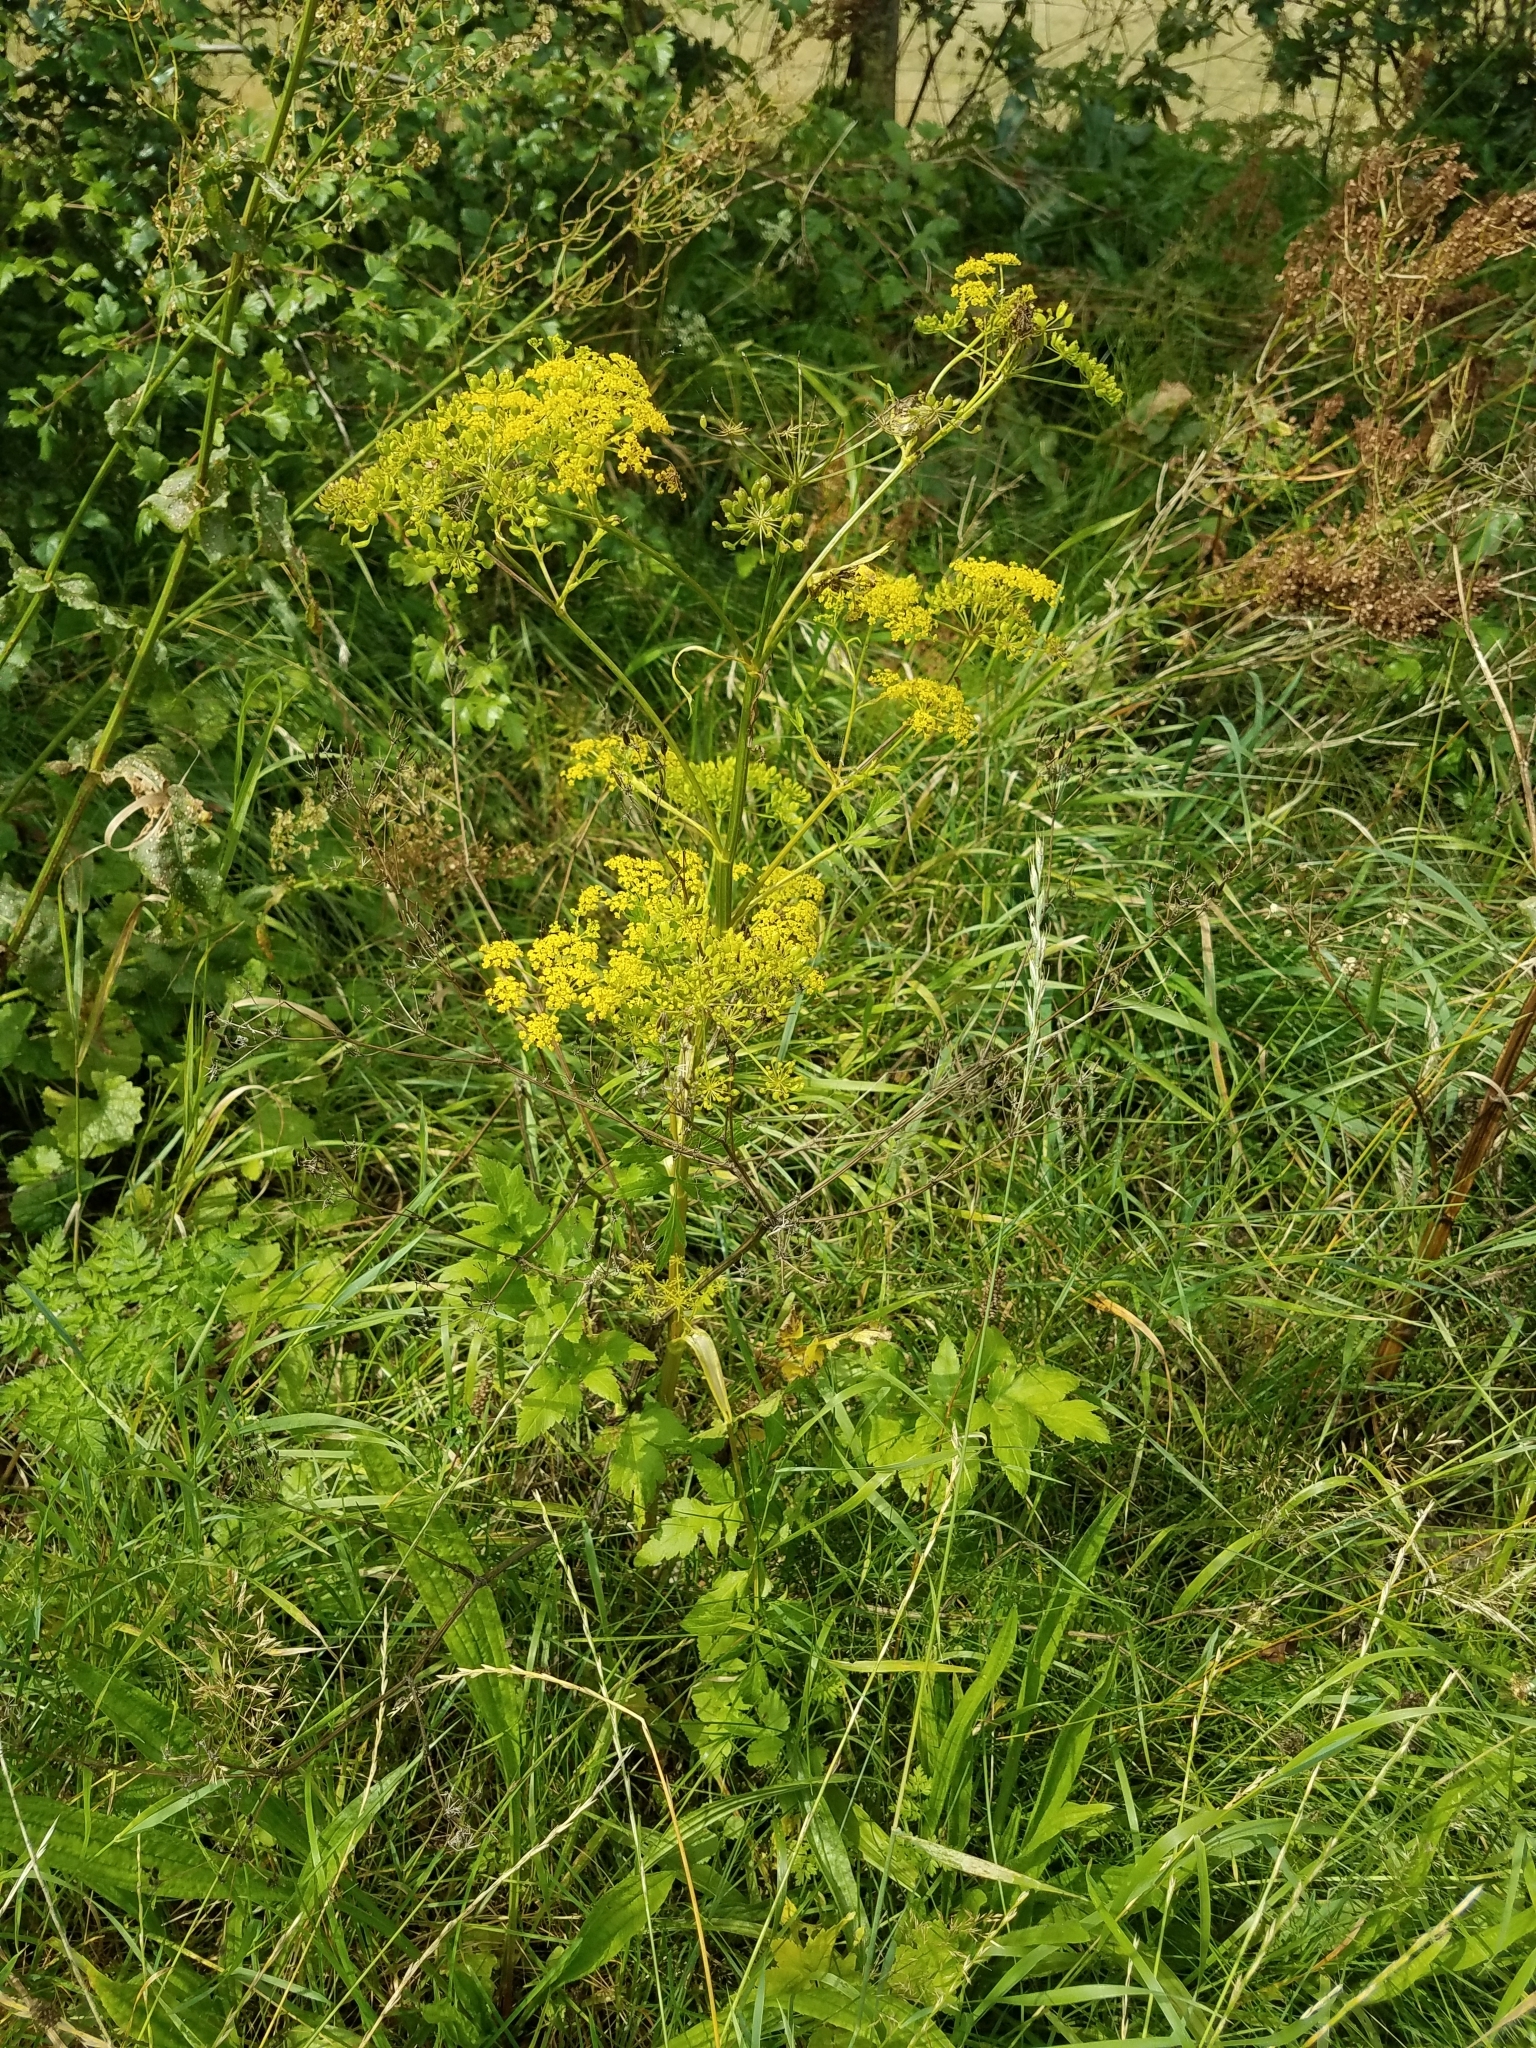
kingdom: Plantae
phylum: Tracheophyta
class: Magnoliopsida
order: Apiales
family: Apiaceae
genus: Pastinaca
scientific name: Pastinaca sativa
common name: Wild parsnip
